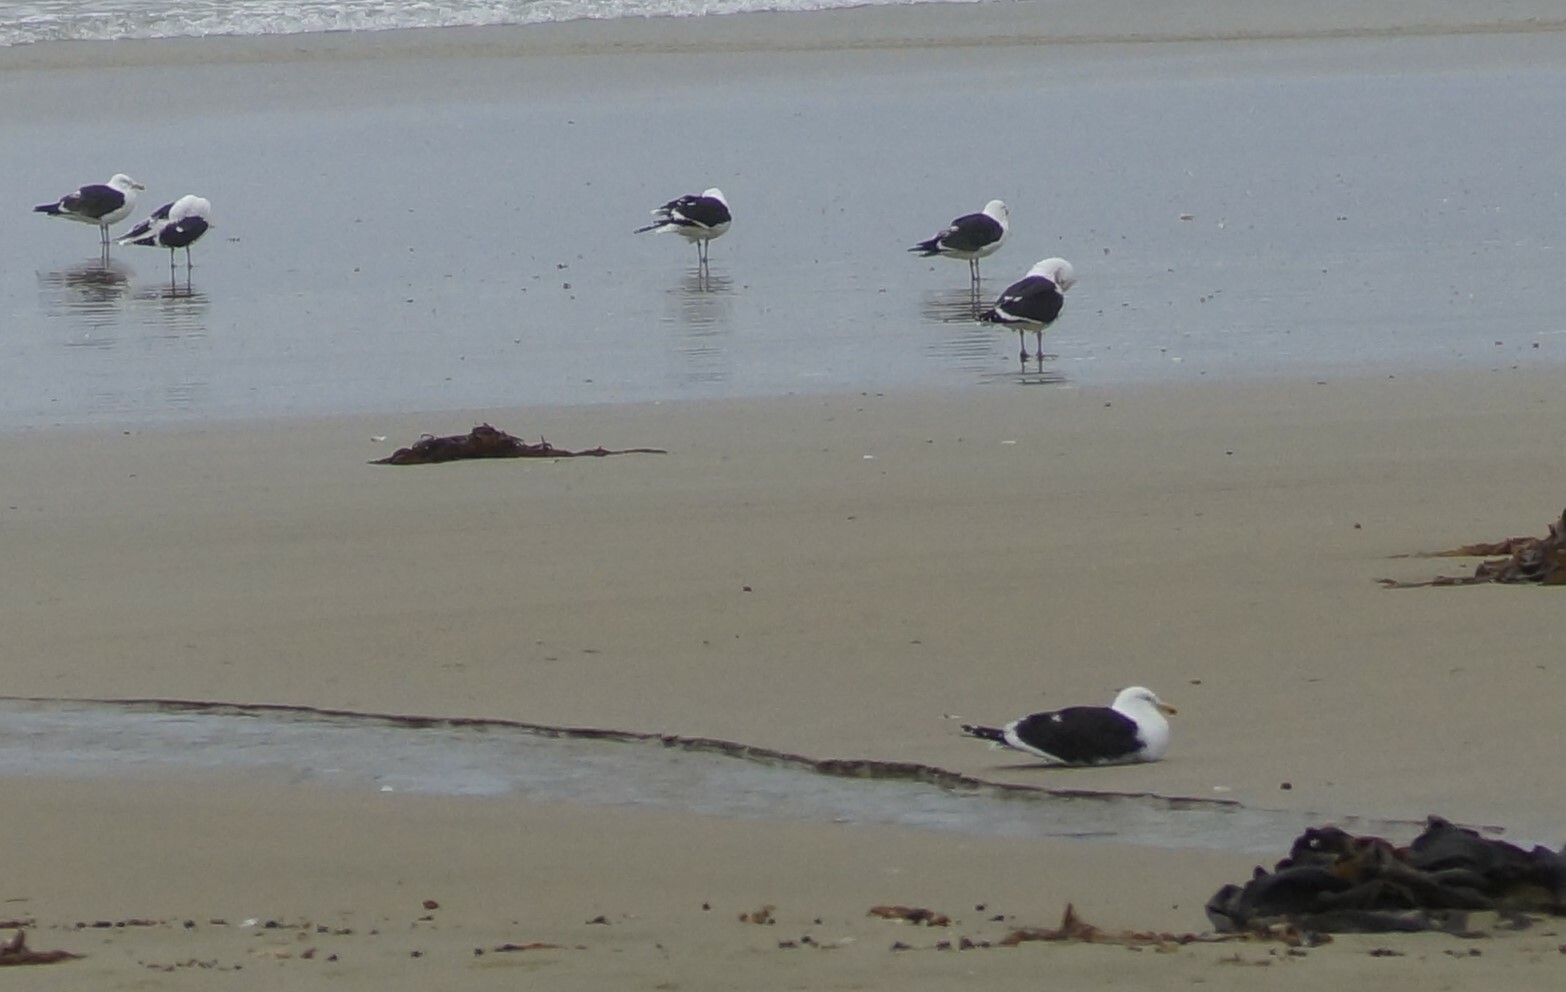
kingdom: Animalia
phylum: Chordata
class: Aves
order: Charadriiformes
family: Laridae
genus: Larus
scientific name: Larus dominicanus
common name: Kelp gull
